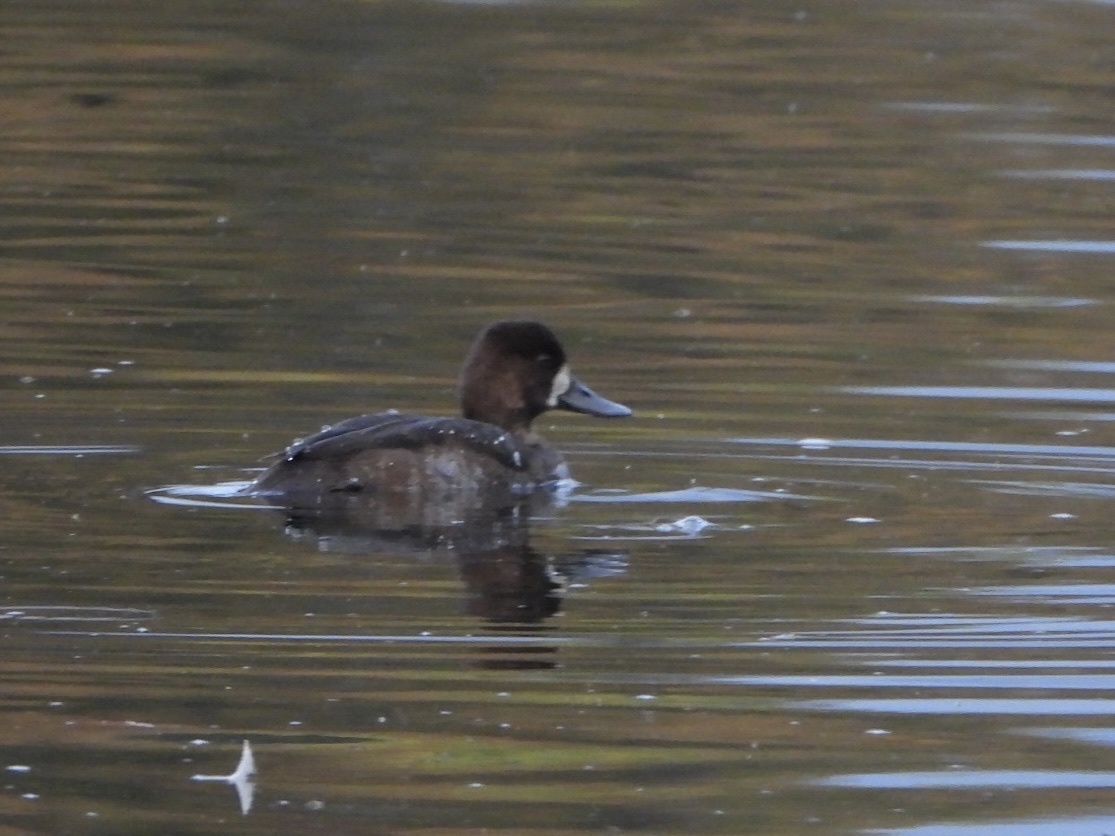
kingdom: Animalia
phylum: Chordata
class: Aves
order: Anseriformes
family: Anatidae
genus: Aythya
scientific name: Aythya affinis
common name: Lesser scaup
